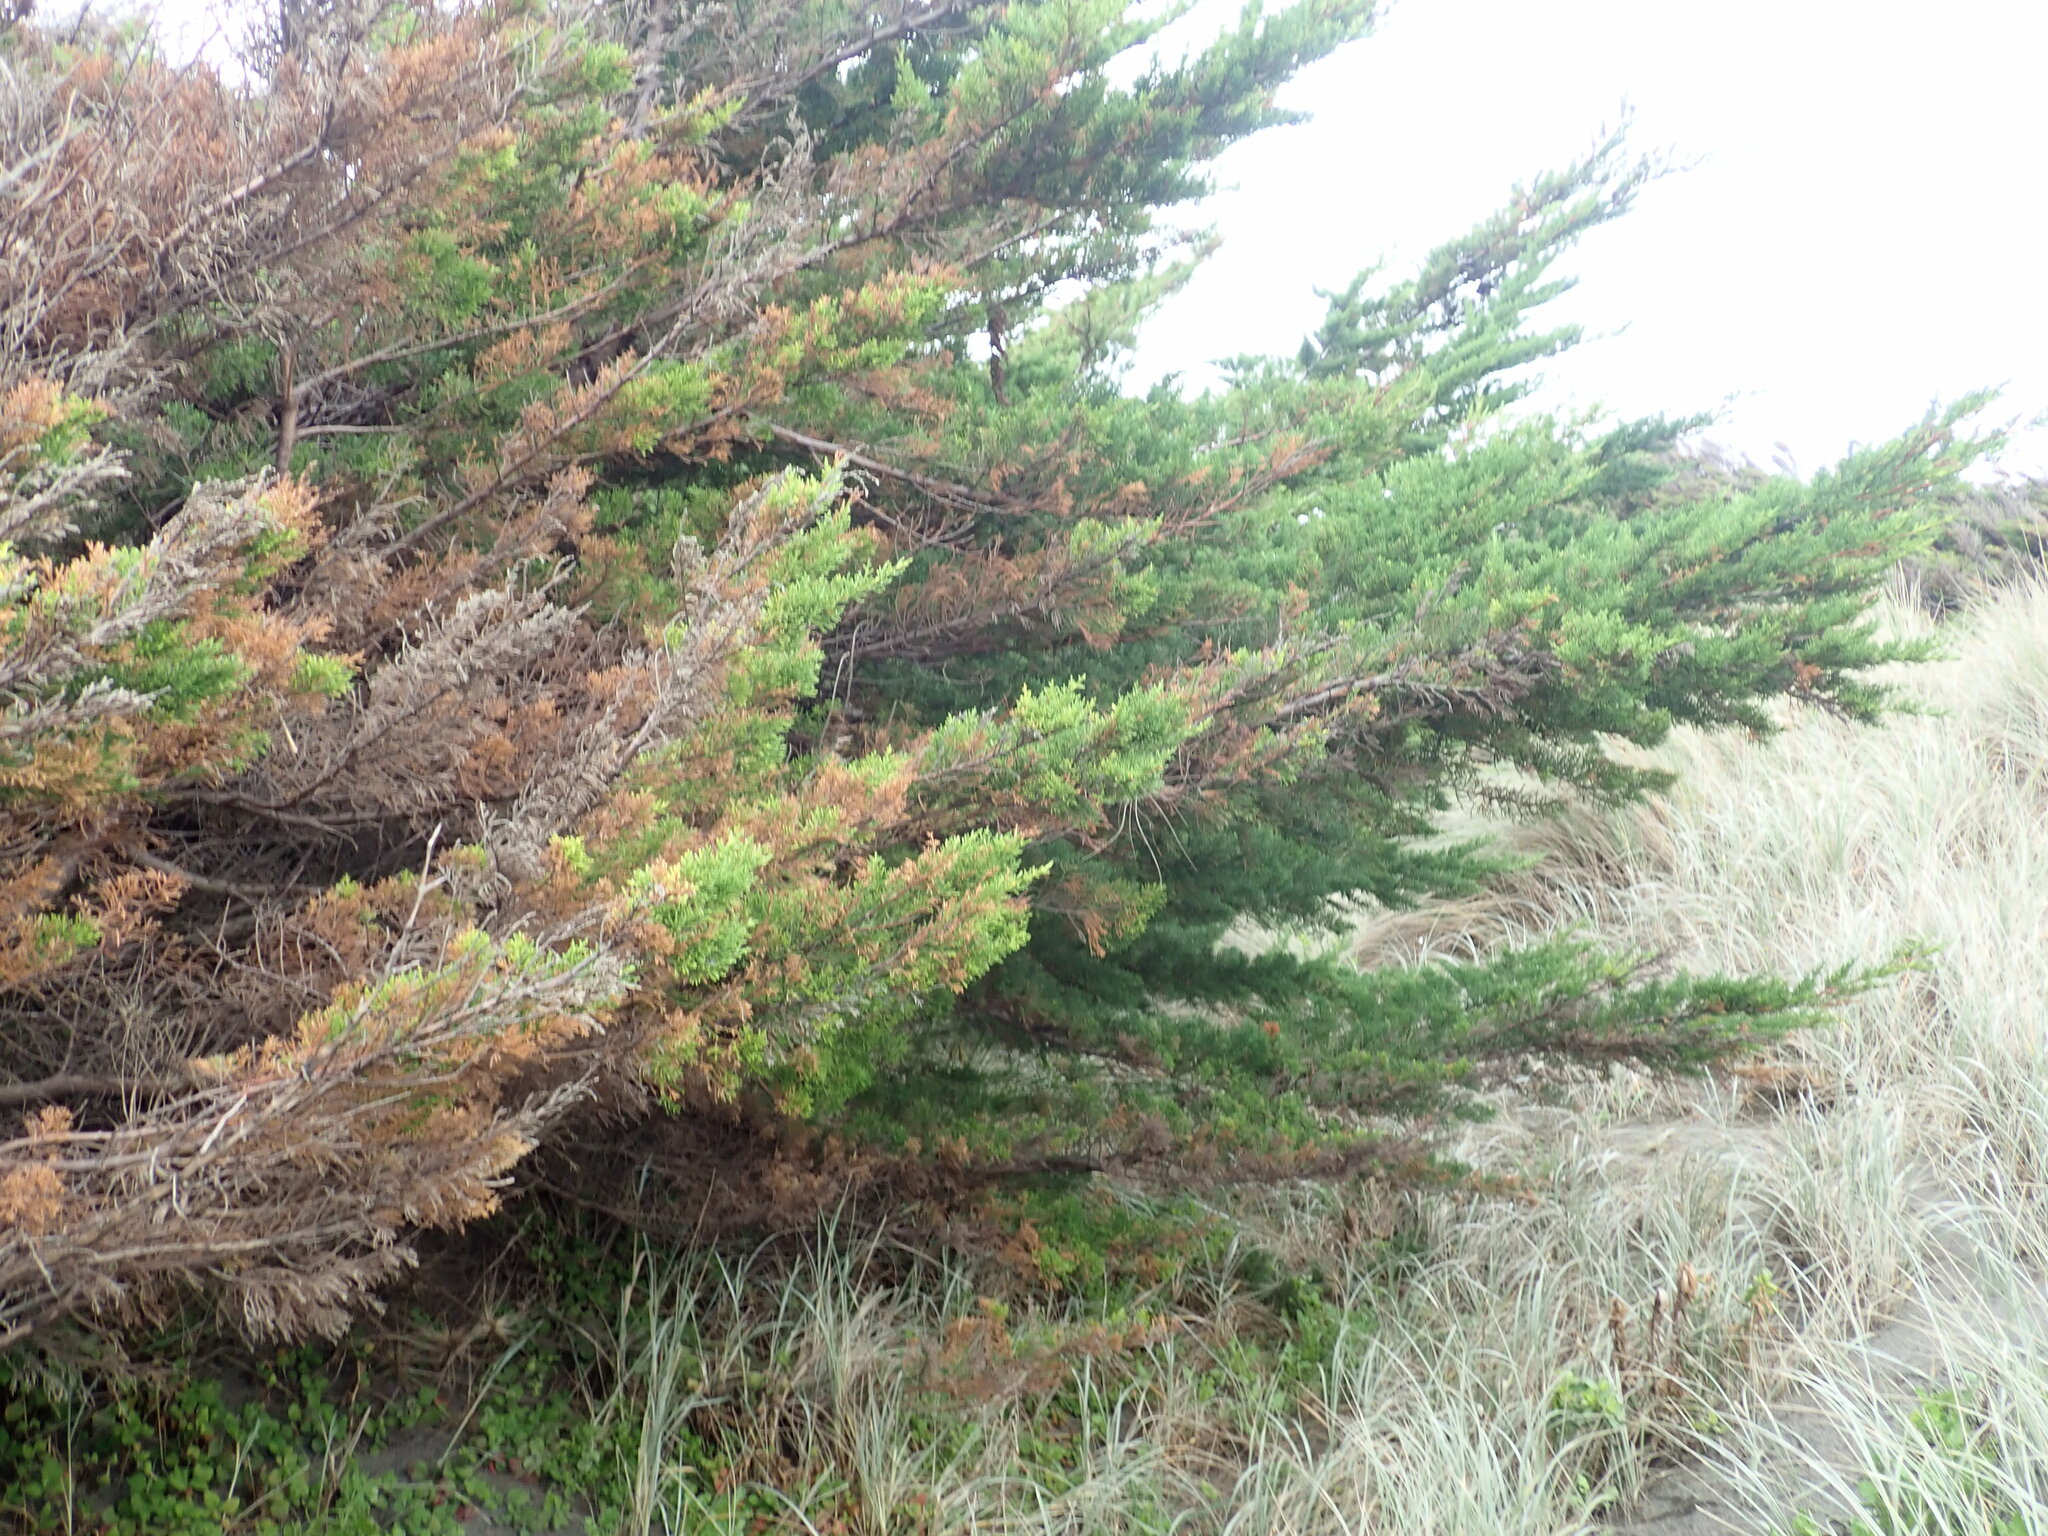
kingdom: Plantae
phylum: Tracheophyta
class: Pinopsida
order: Pinales
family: Cupressaceae
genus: Cupressus
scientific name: Cupressus macrocarpa
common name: Monterey cypress
